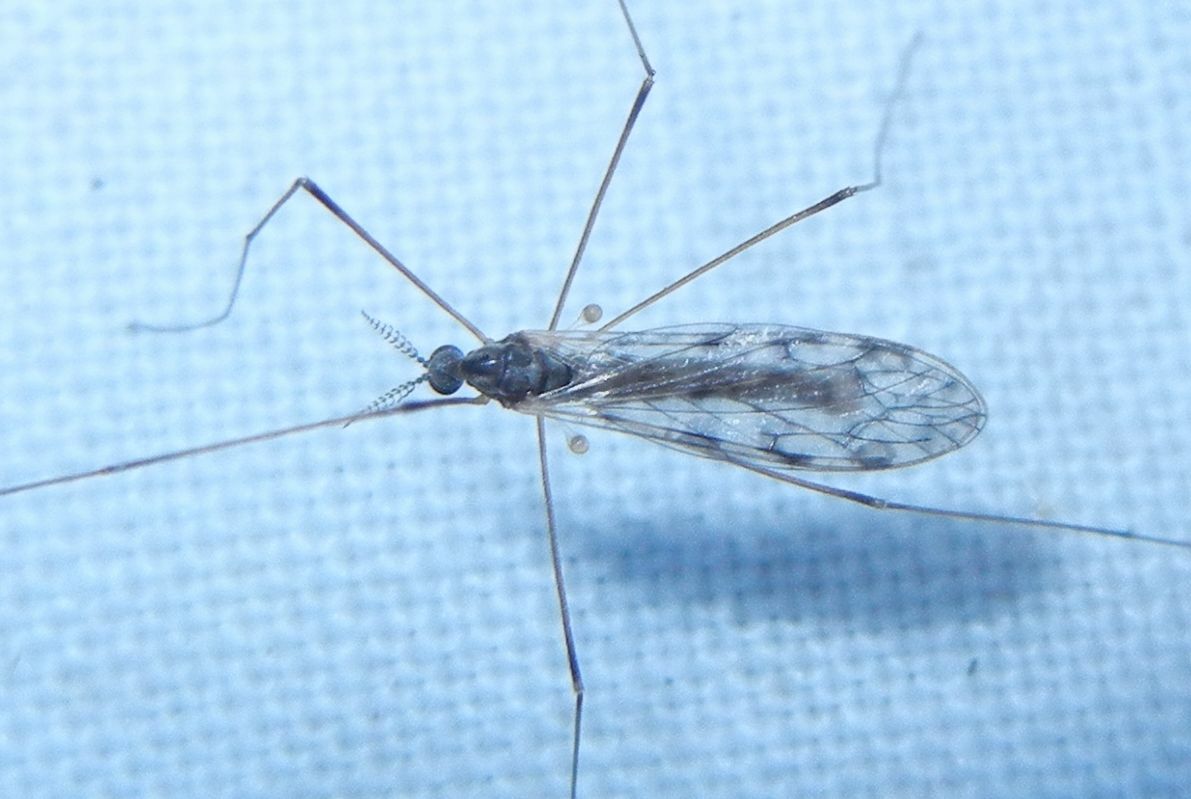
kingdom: Animalia
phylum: Arthropoda
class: Insecta
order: Diptera
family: Limoniidae
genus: Rhipidia
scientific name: Rhipidia maculata
